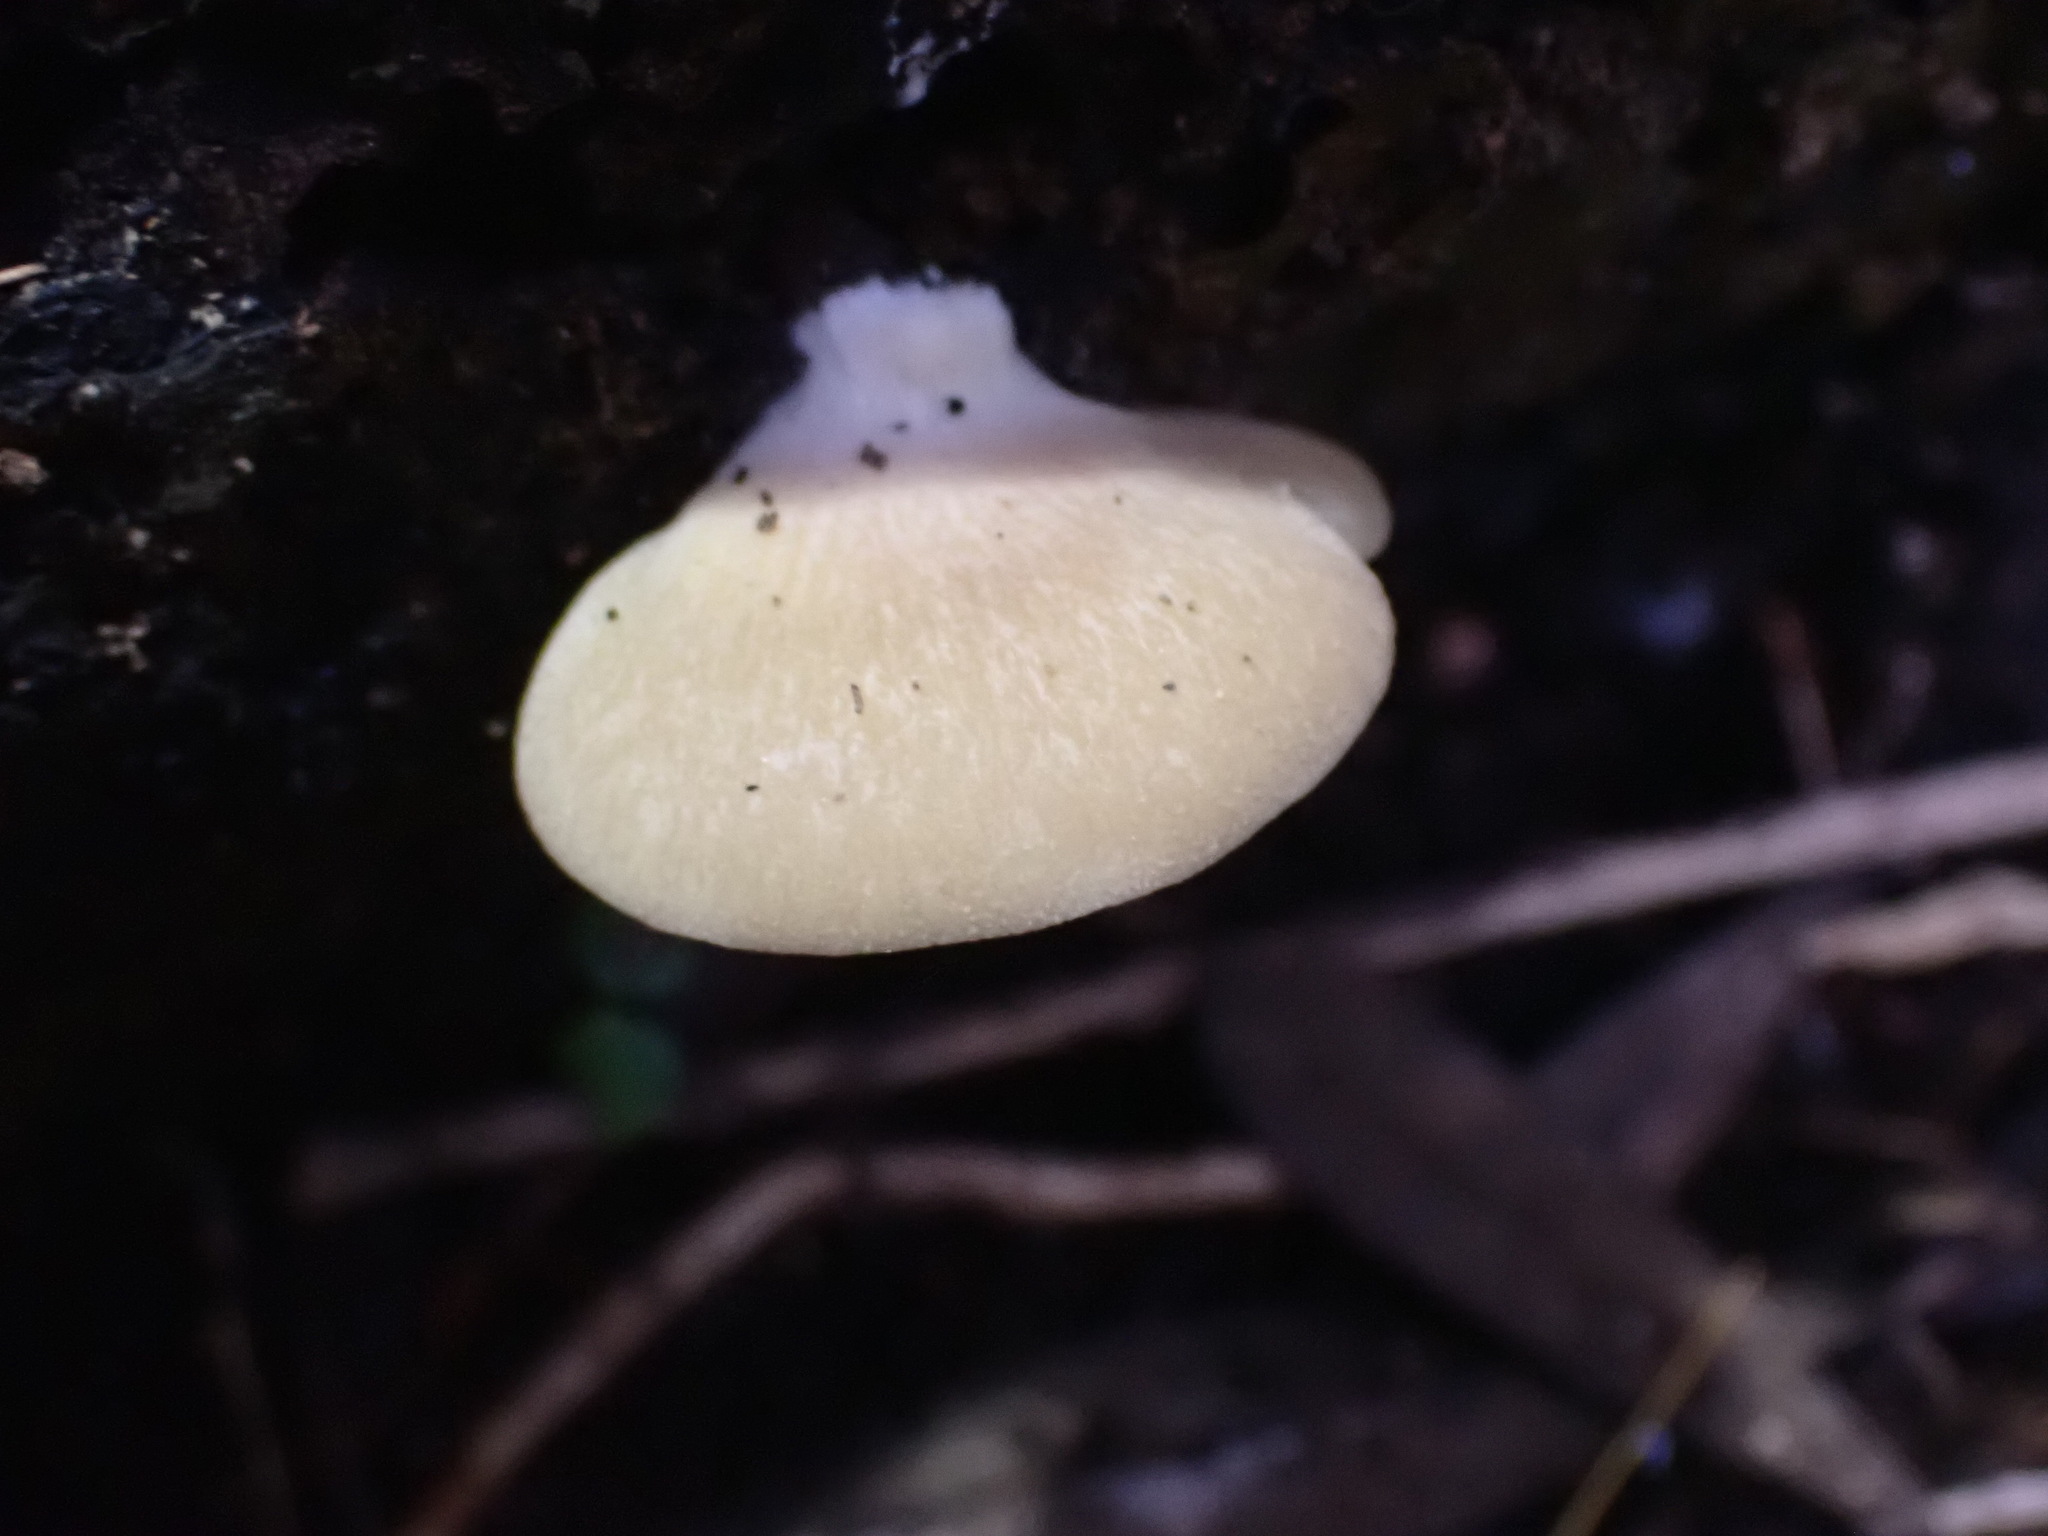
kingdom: Fungi
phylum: Basidiomycota
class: Agaricomycetes
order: Agaricales
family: Tricholomataceae
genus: Conchomyces
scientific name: Conchomyces bursiformis
